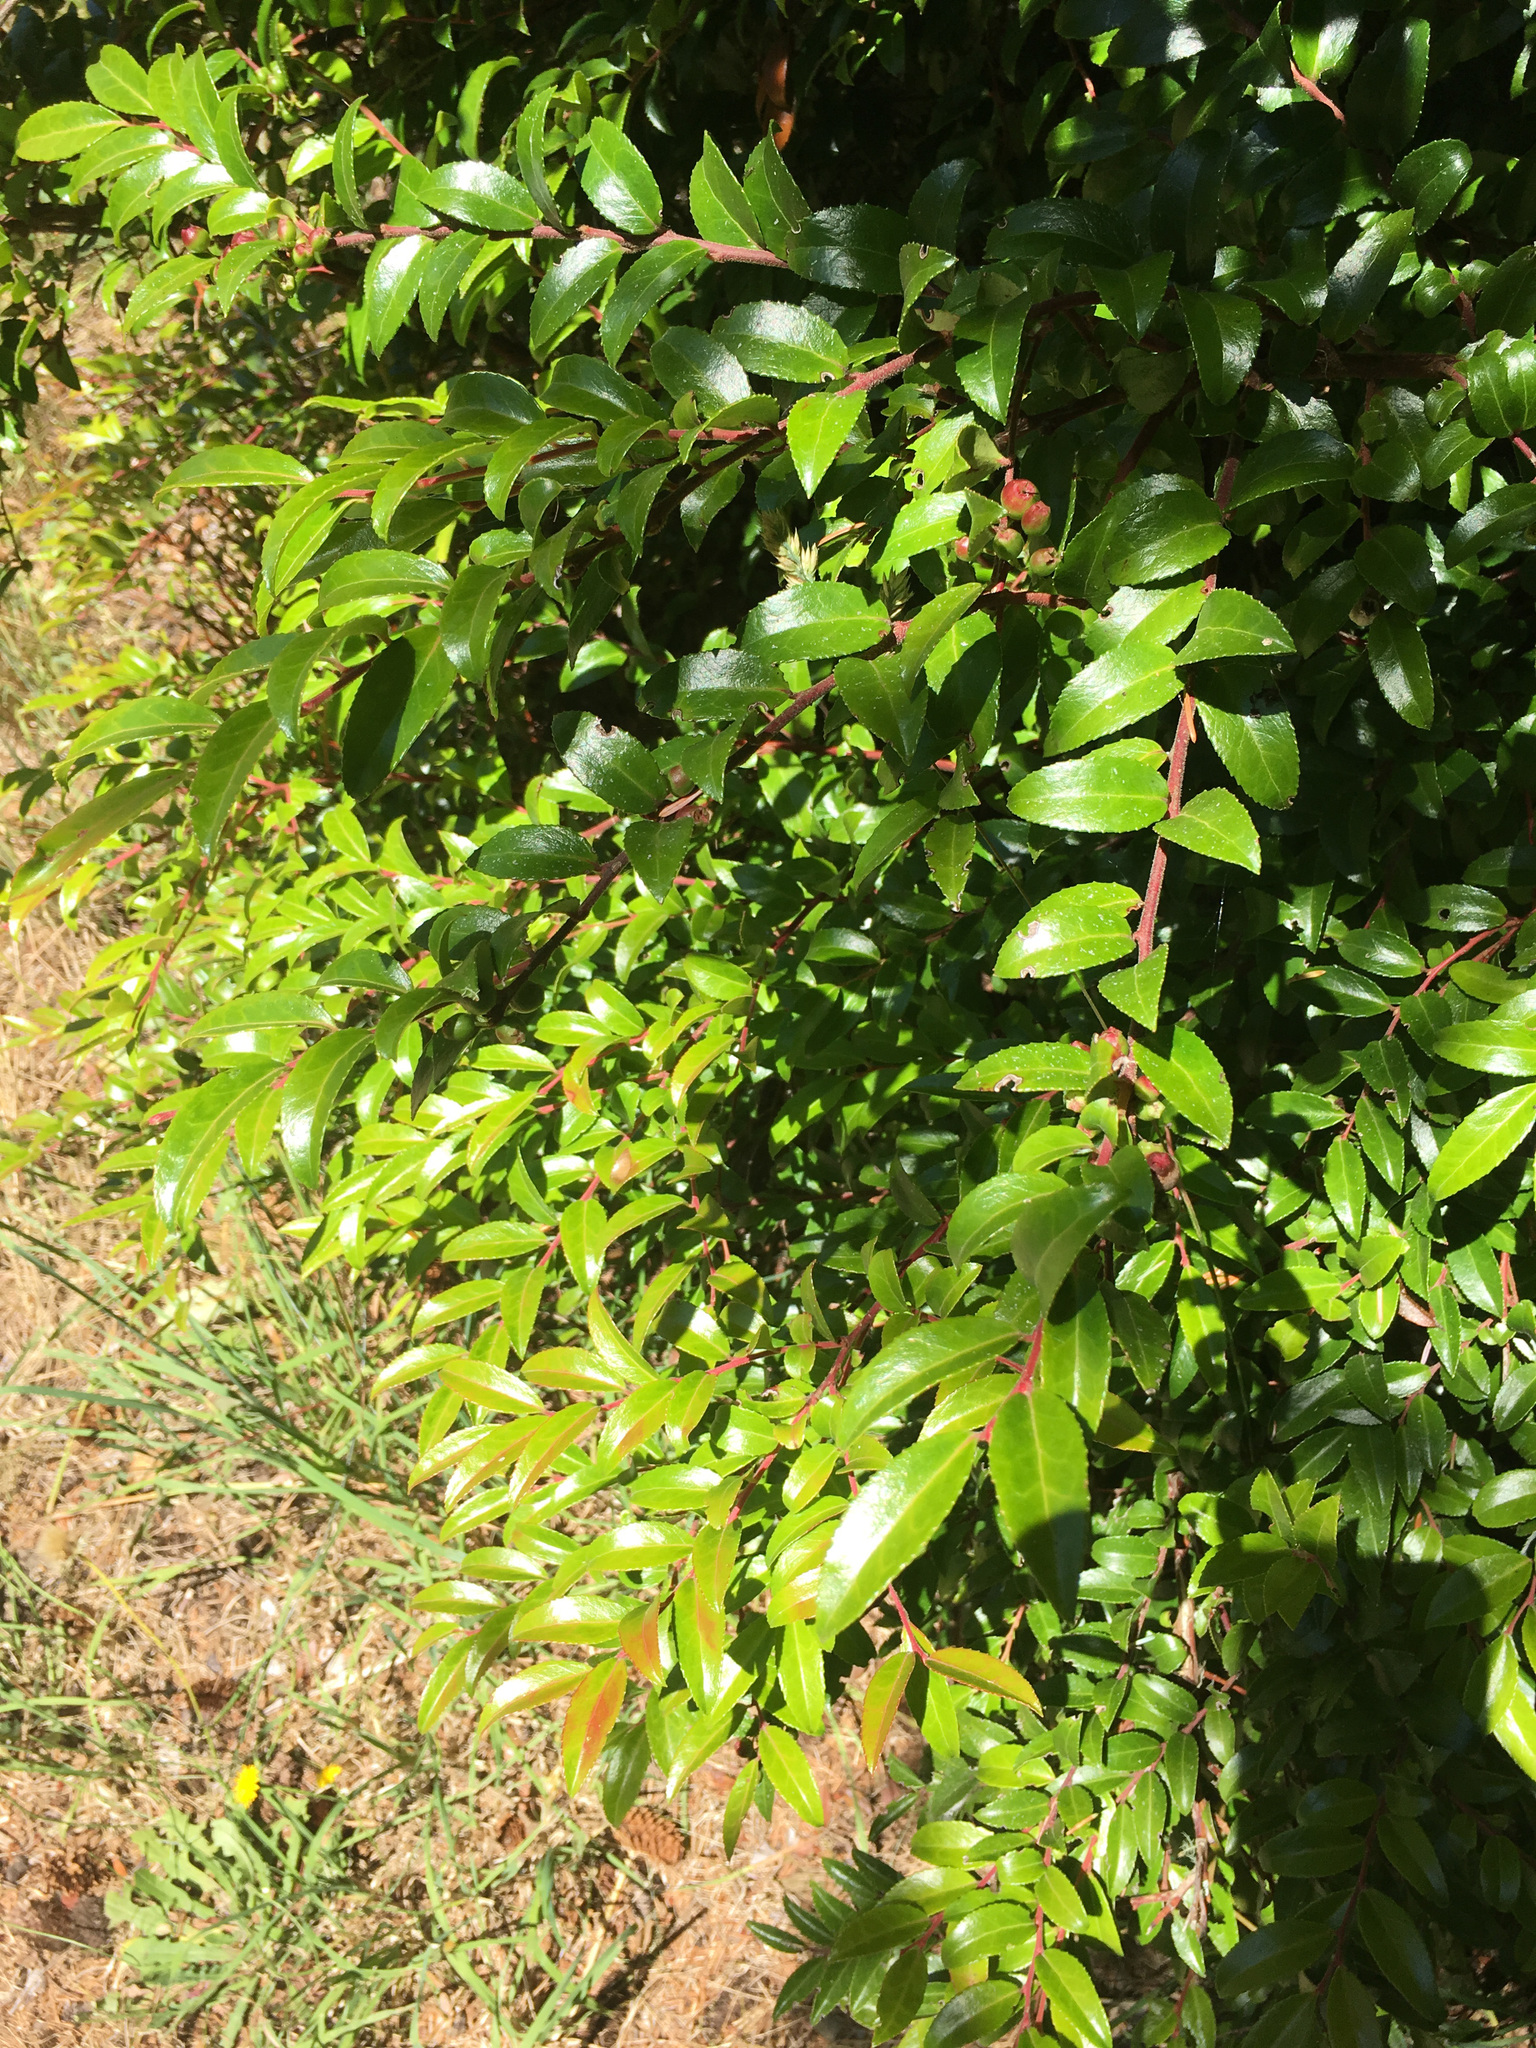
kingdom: Plantae
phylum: Tracheophyta
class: Magnoliopsida
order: Ericales
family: Ericaceae
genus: Vaccinium
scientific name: Vaccinium ovatum
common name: California-huckleberry
